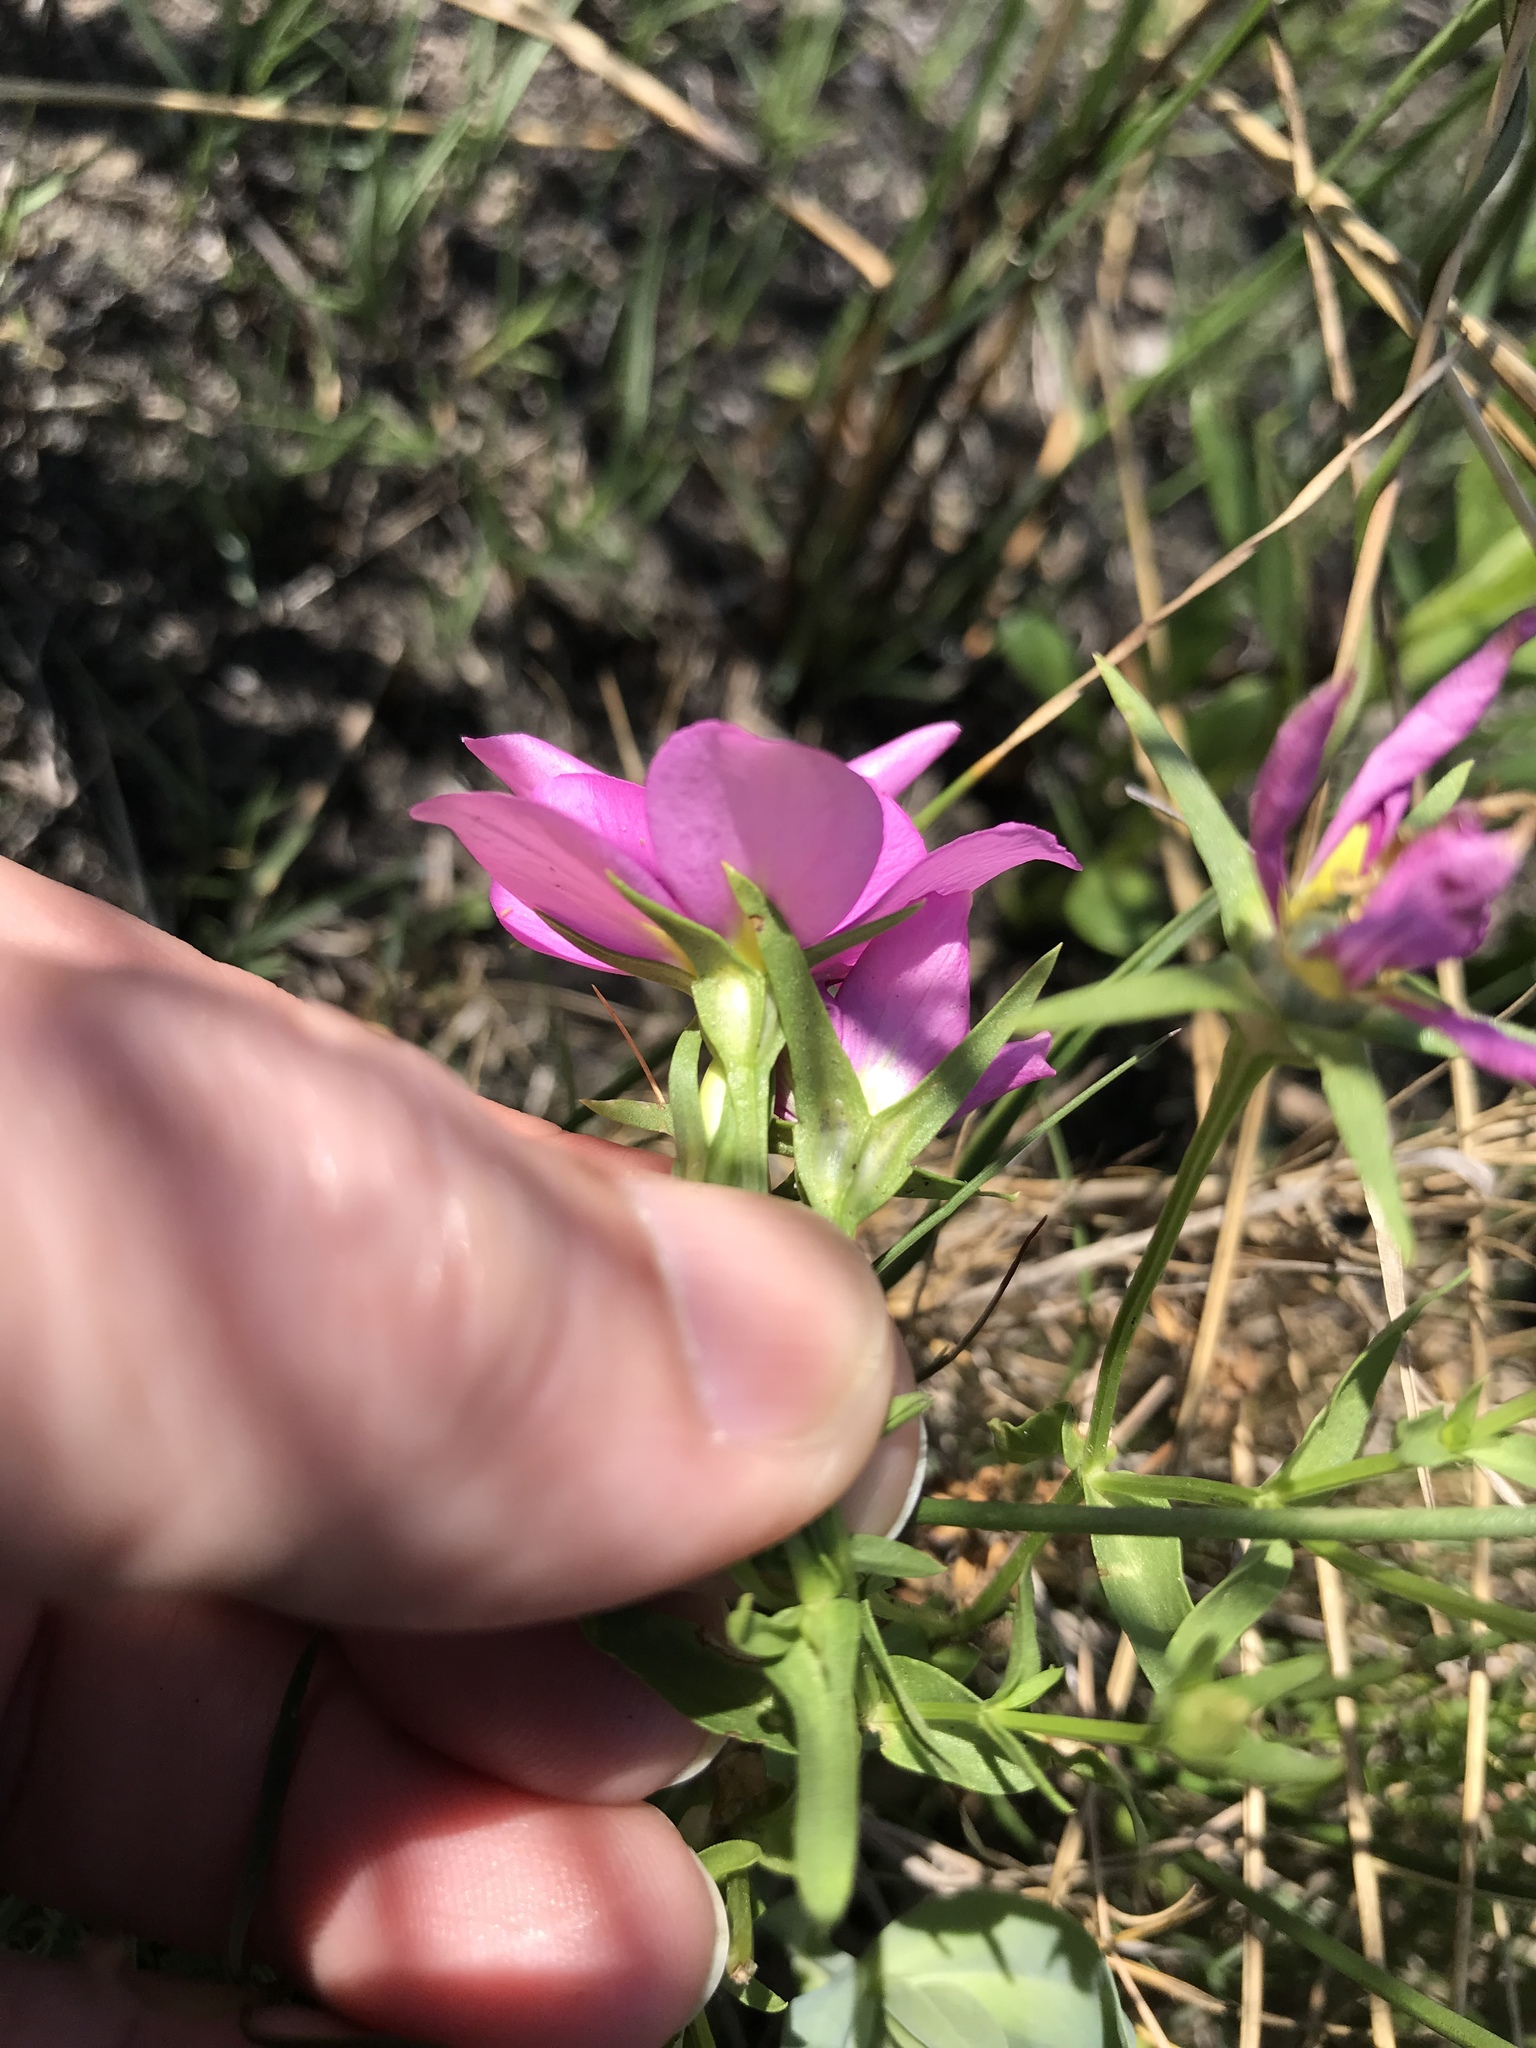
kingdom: Plantae
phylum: Tracheophyta
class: Magnoliopsida
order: Gentianales
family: Gentianaceae
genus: Sabatia
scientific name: Sabatia campestris
